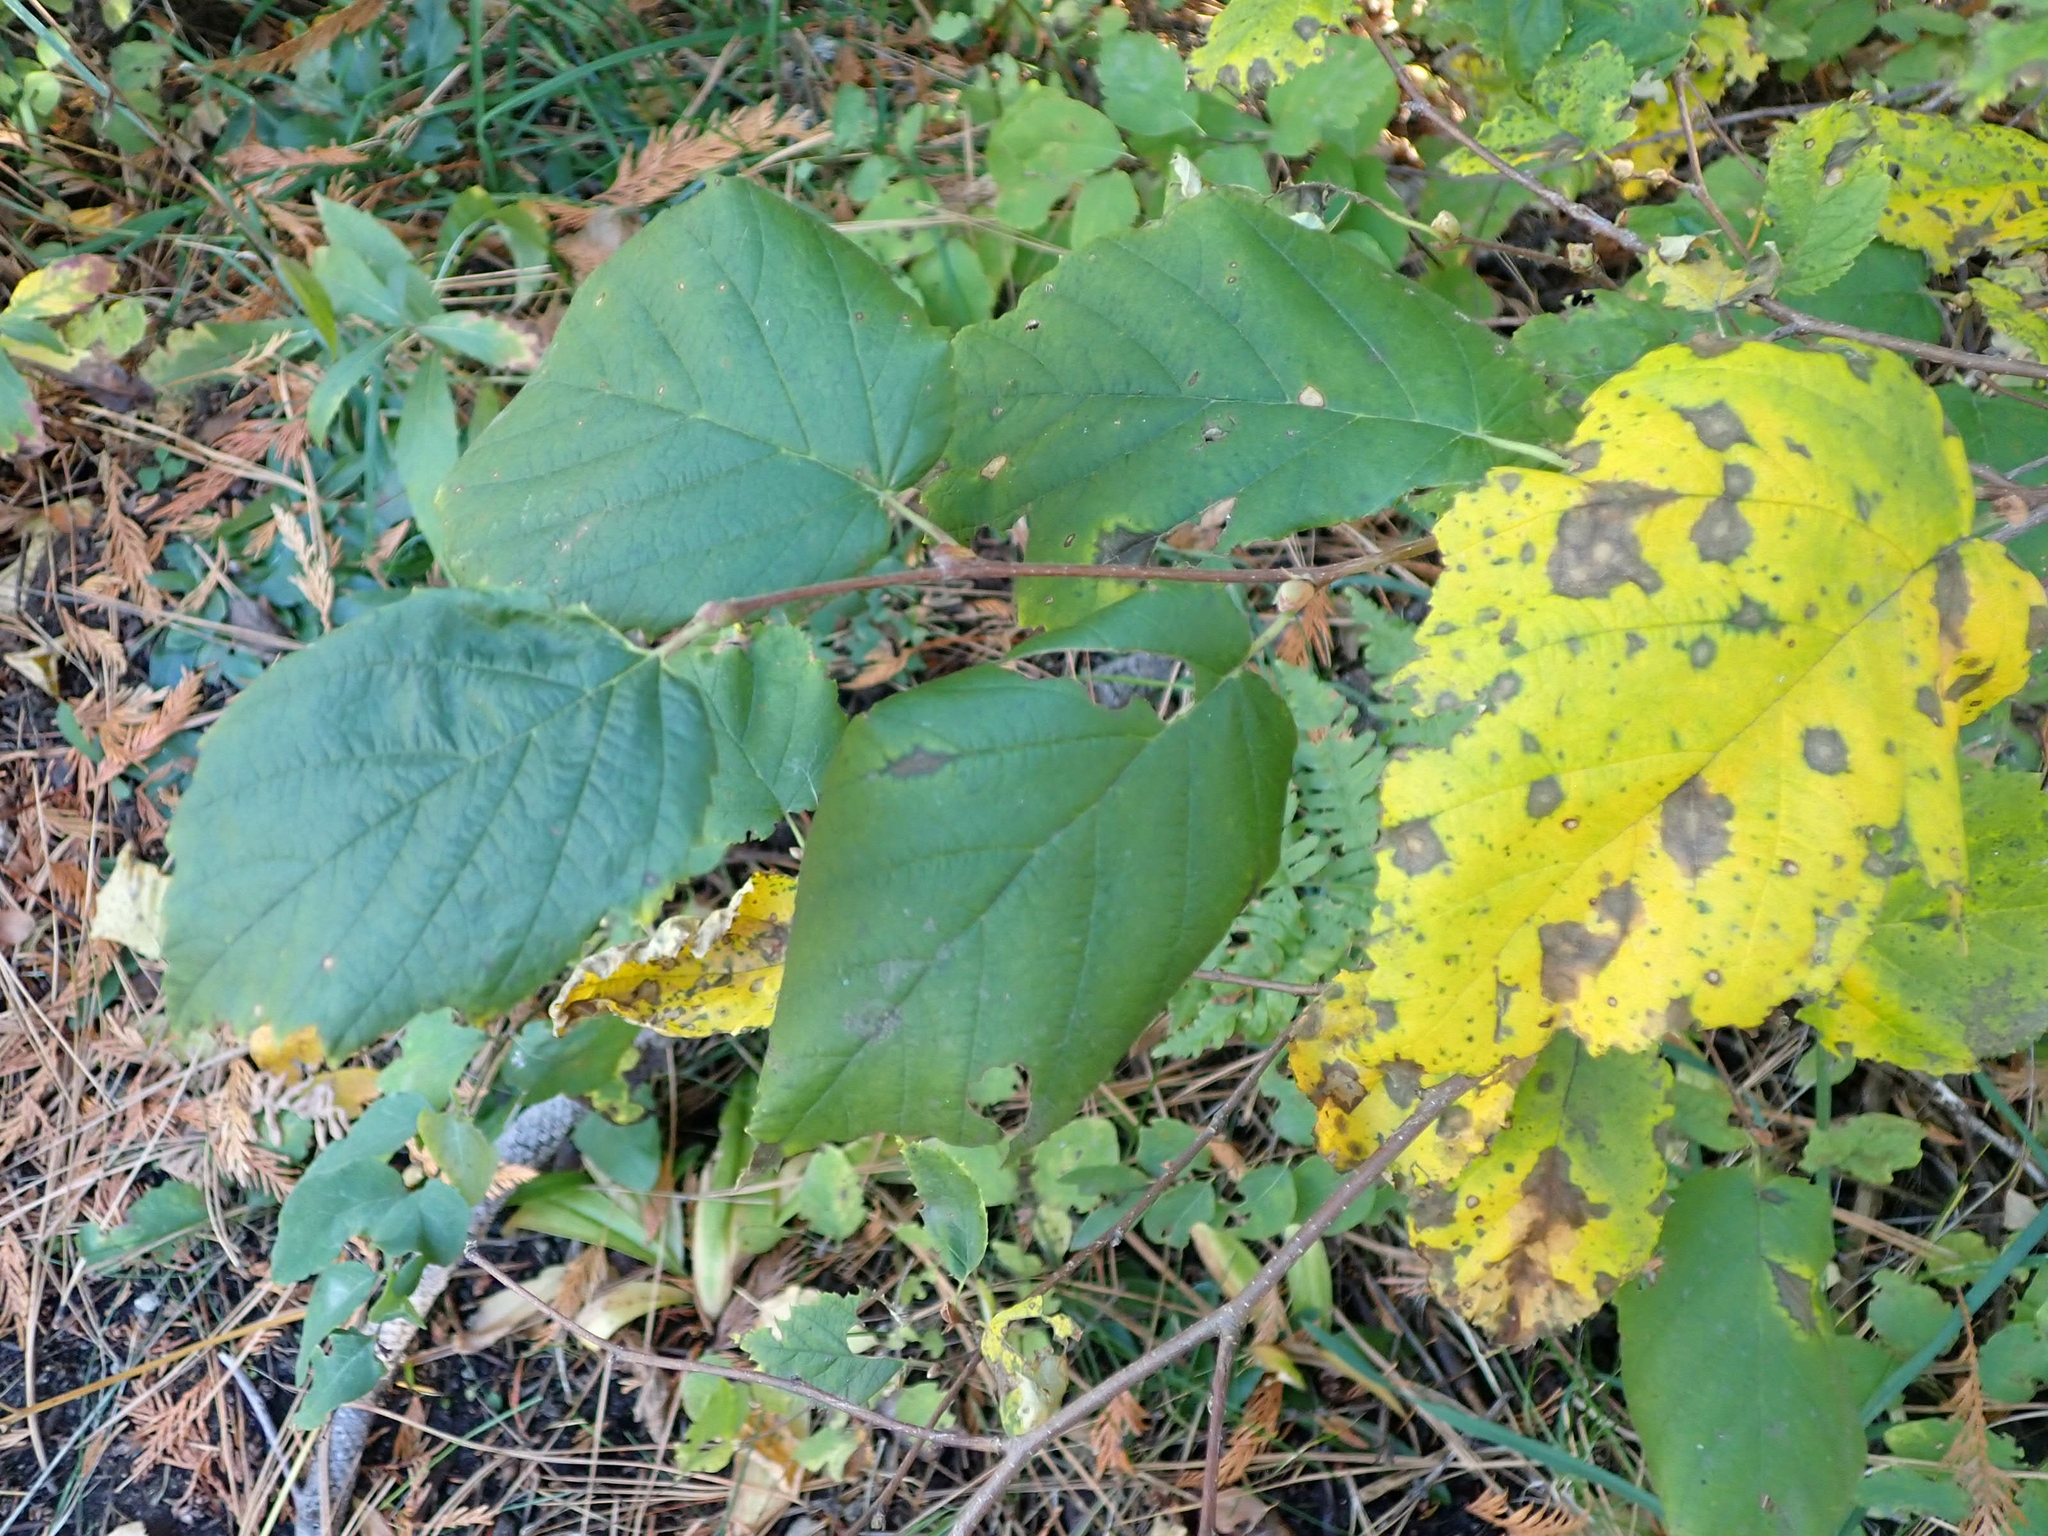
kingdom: Plantae
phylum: Tracheophyta
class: Magnoliopsida
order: Fagales
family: Betulaceae
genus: Corylus
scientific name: Corylus cornuta
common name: Beaked hazel
